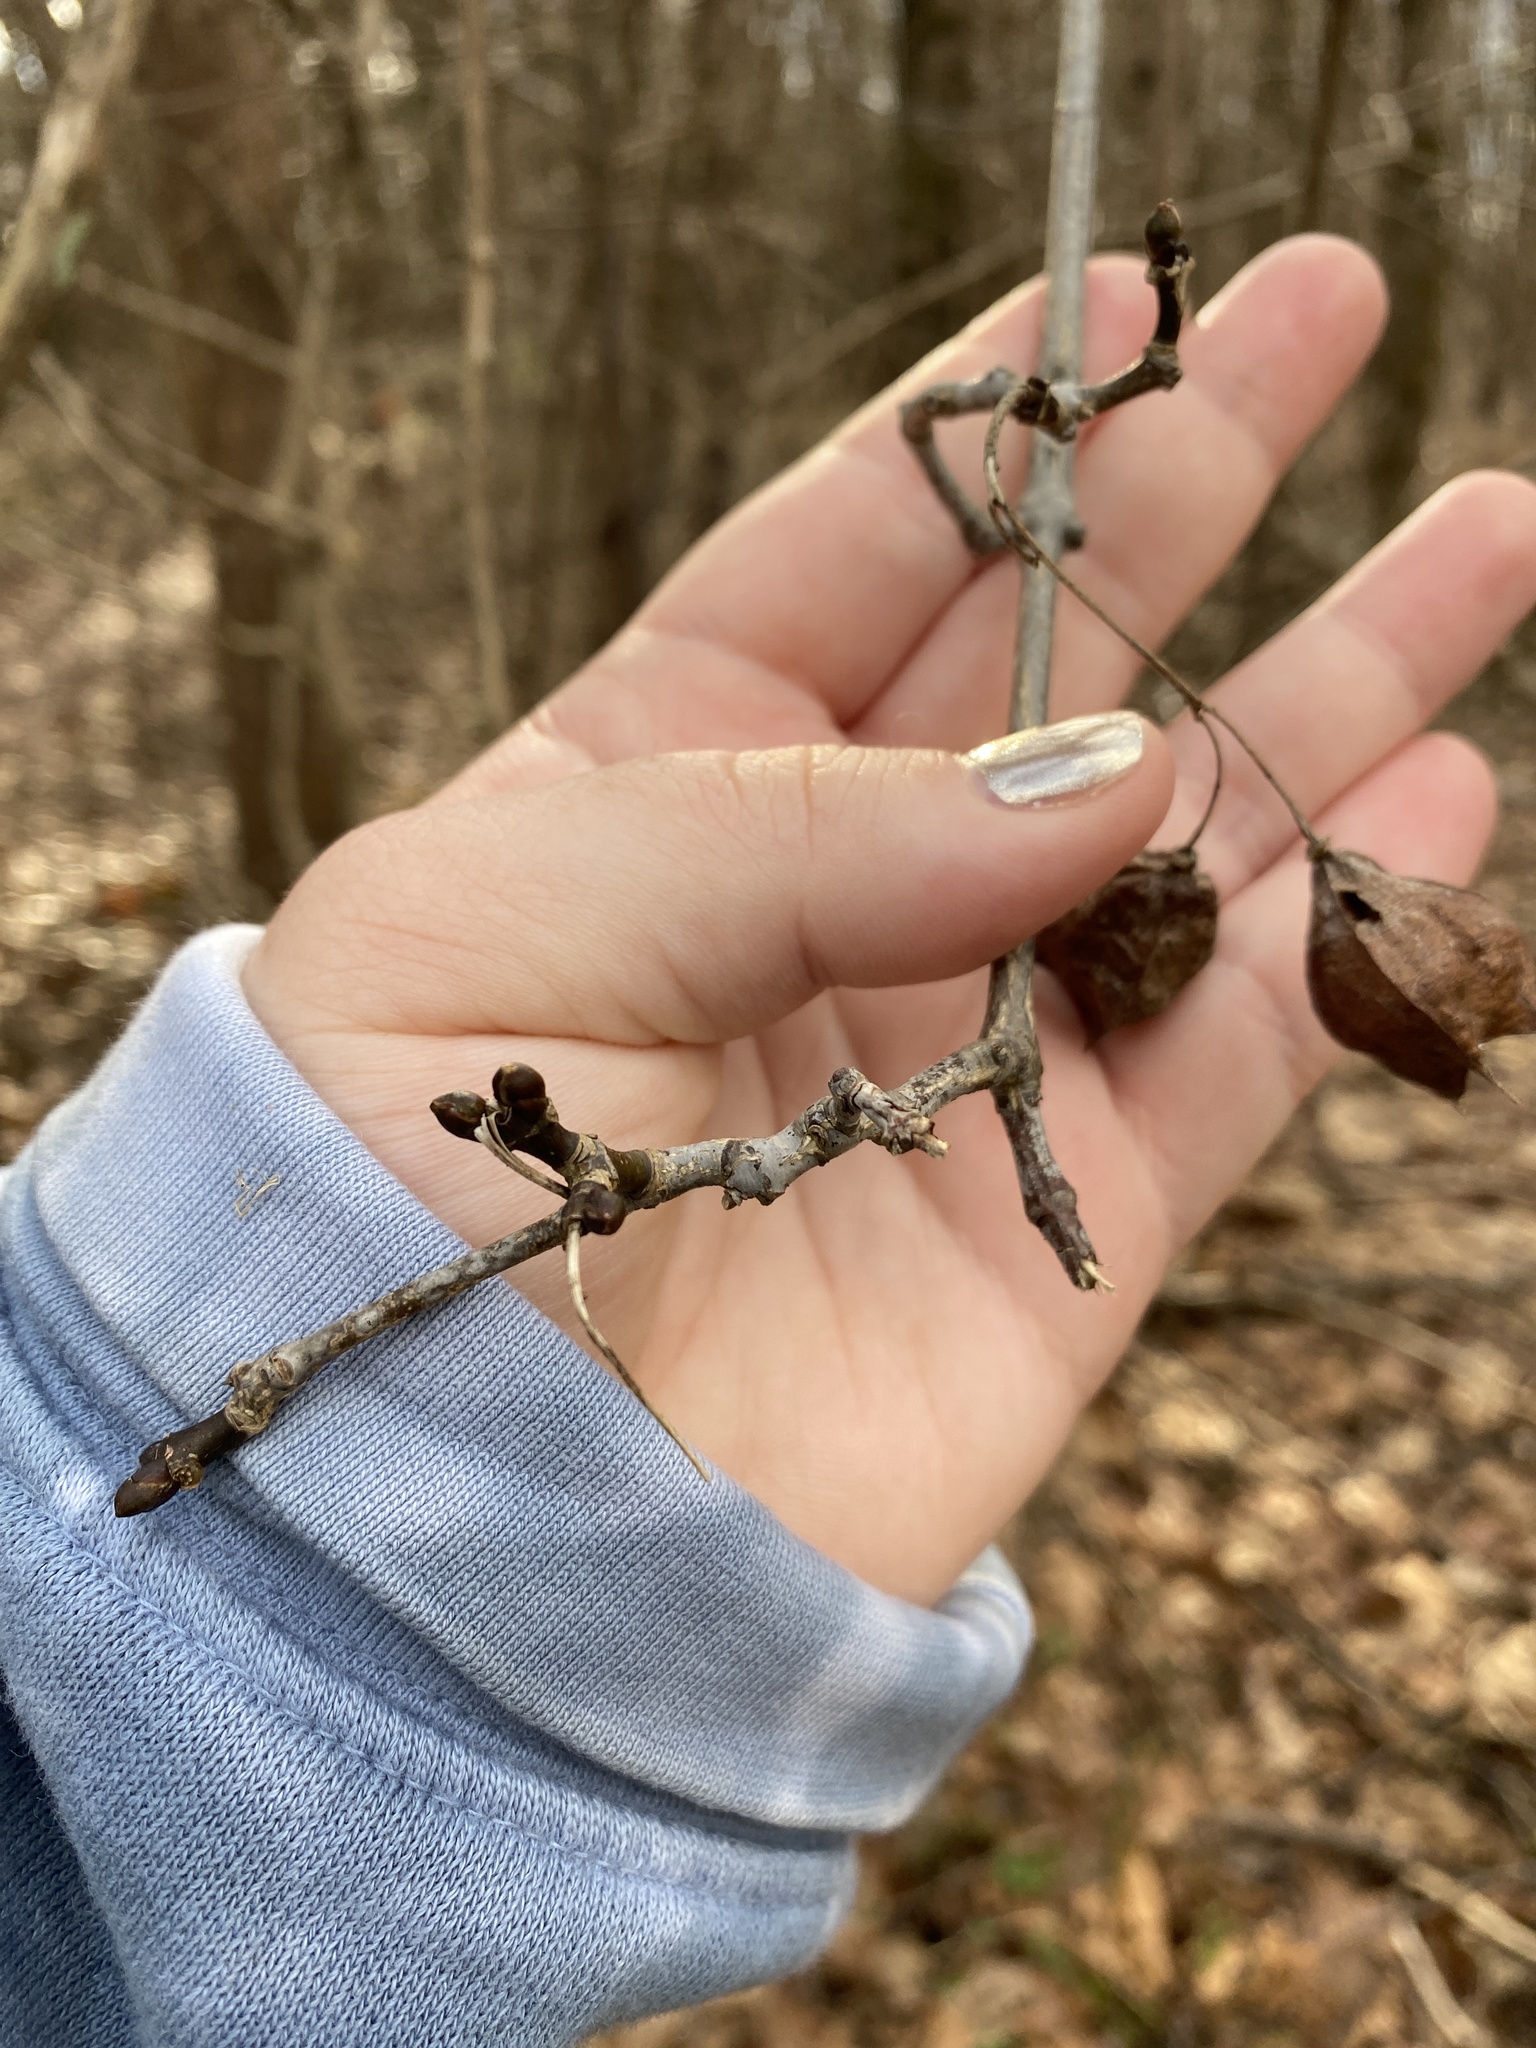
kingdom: Plantae
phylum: Tracheophyta
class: Magnoliopsida
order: Crossosomatales
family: Staphyleaceae
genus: Staphylea
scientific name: Staphylea trifolia
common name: American bladdernut
